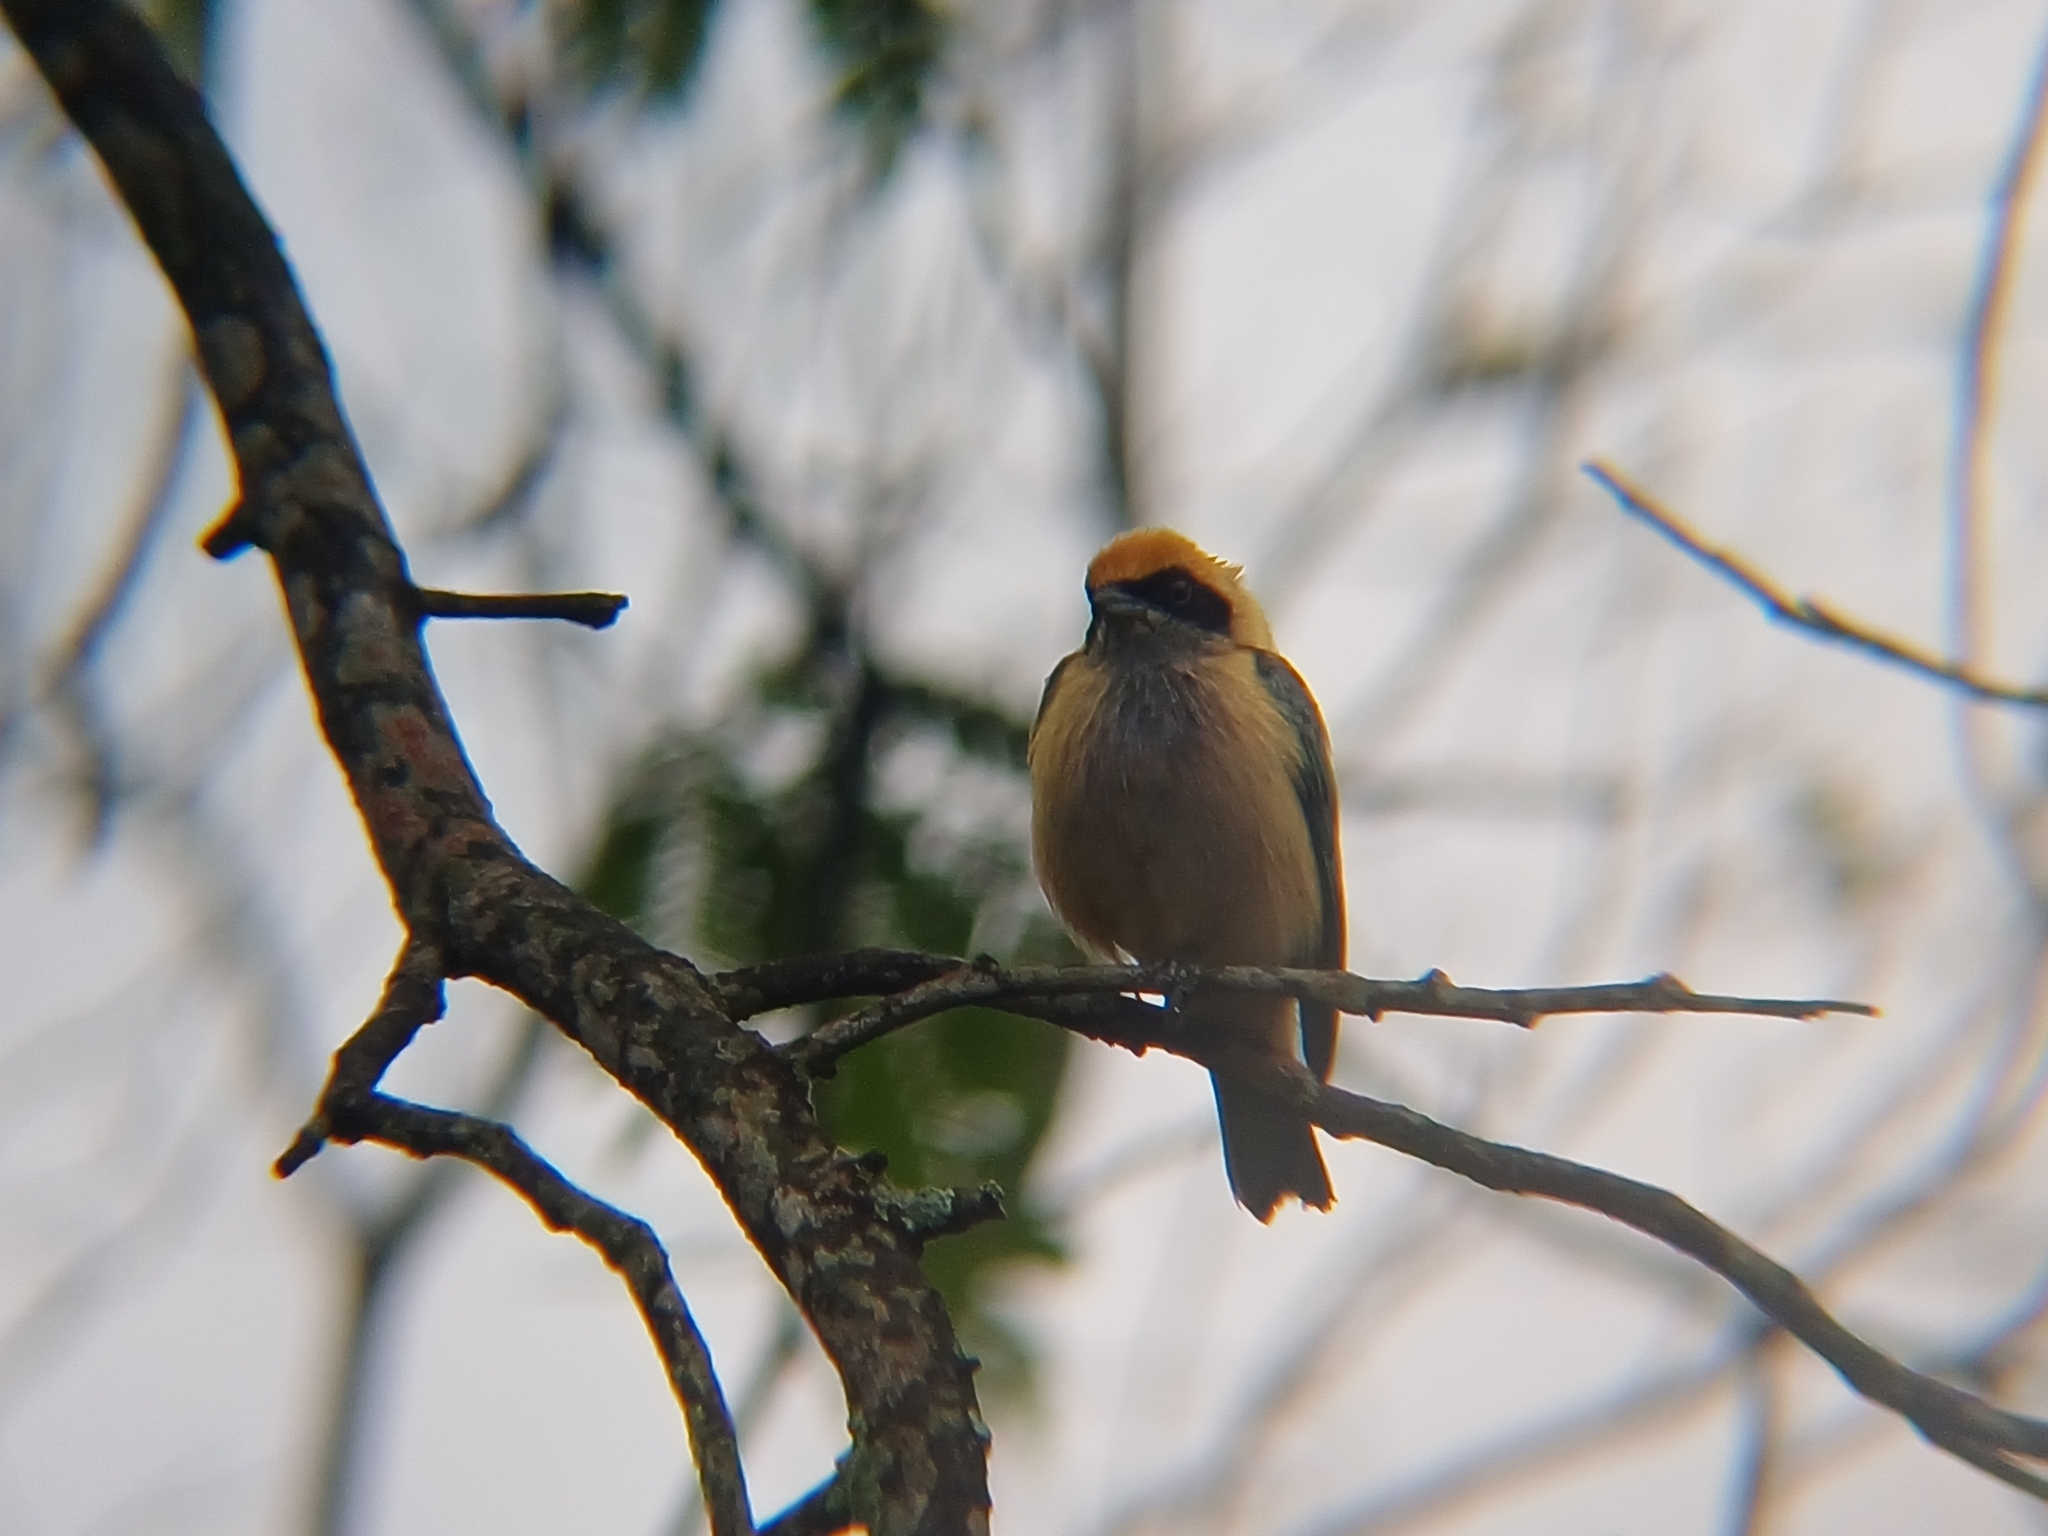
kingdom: Animalia
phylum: Chordata
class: Aves
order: Passeriformes
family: Thraupidae
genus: Stilpnia
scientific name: Stilpnia cayana
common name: Burnished-buff tanager
